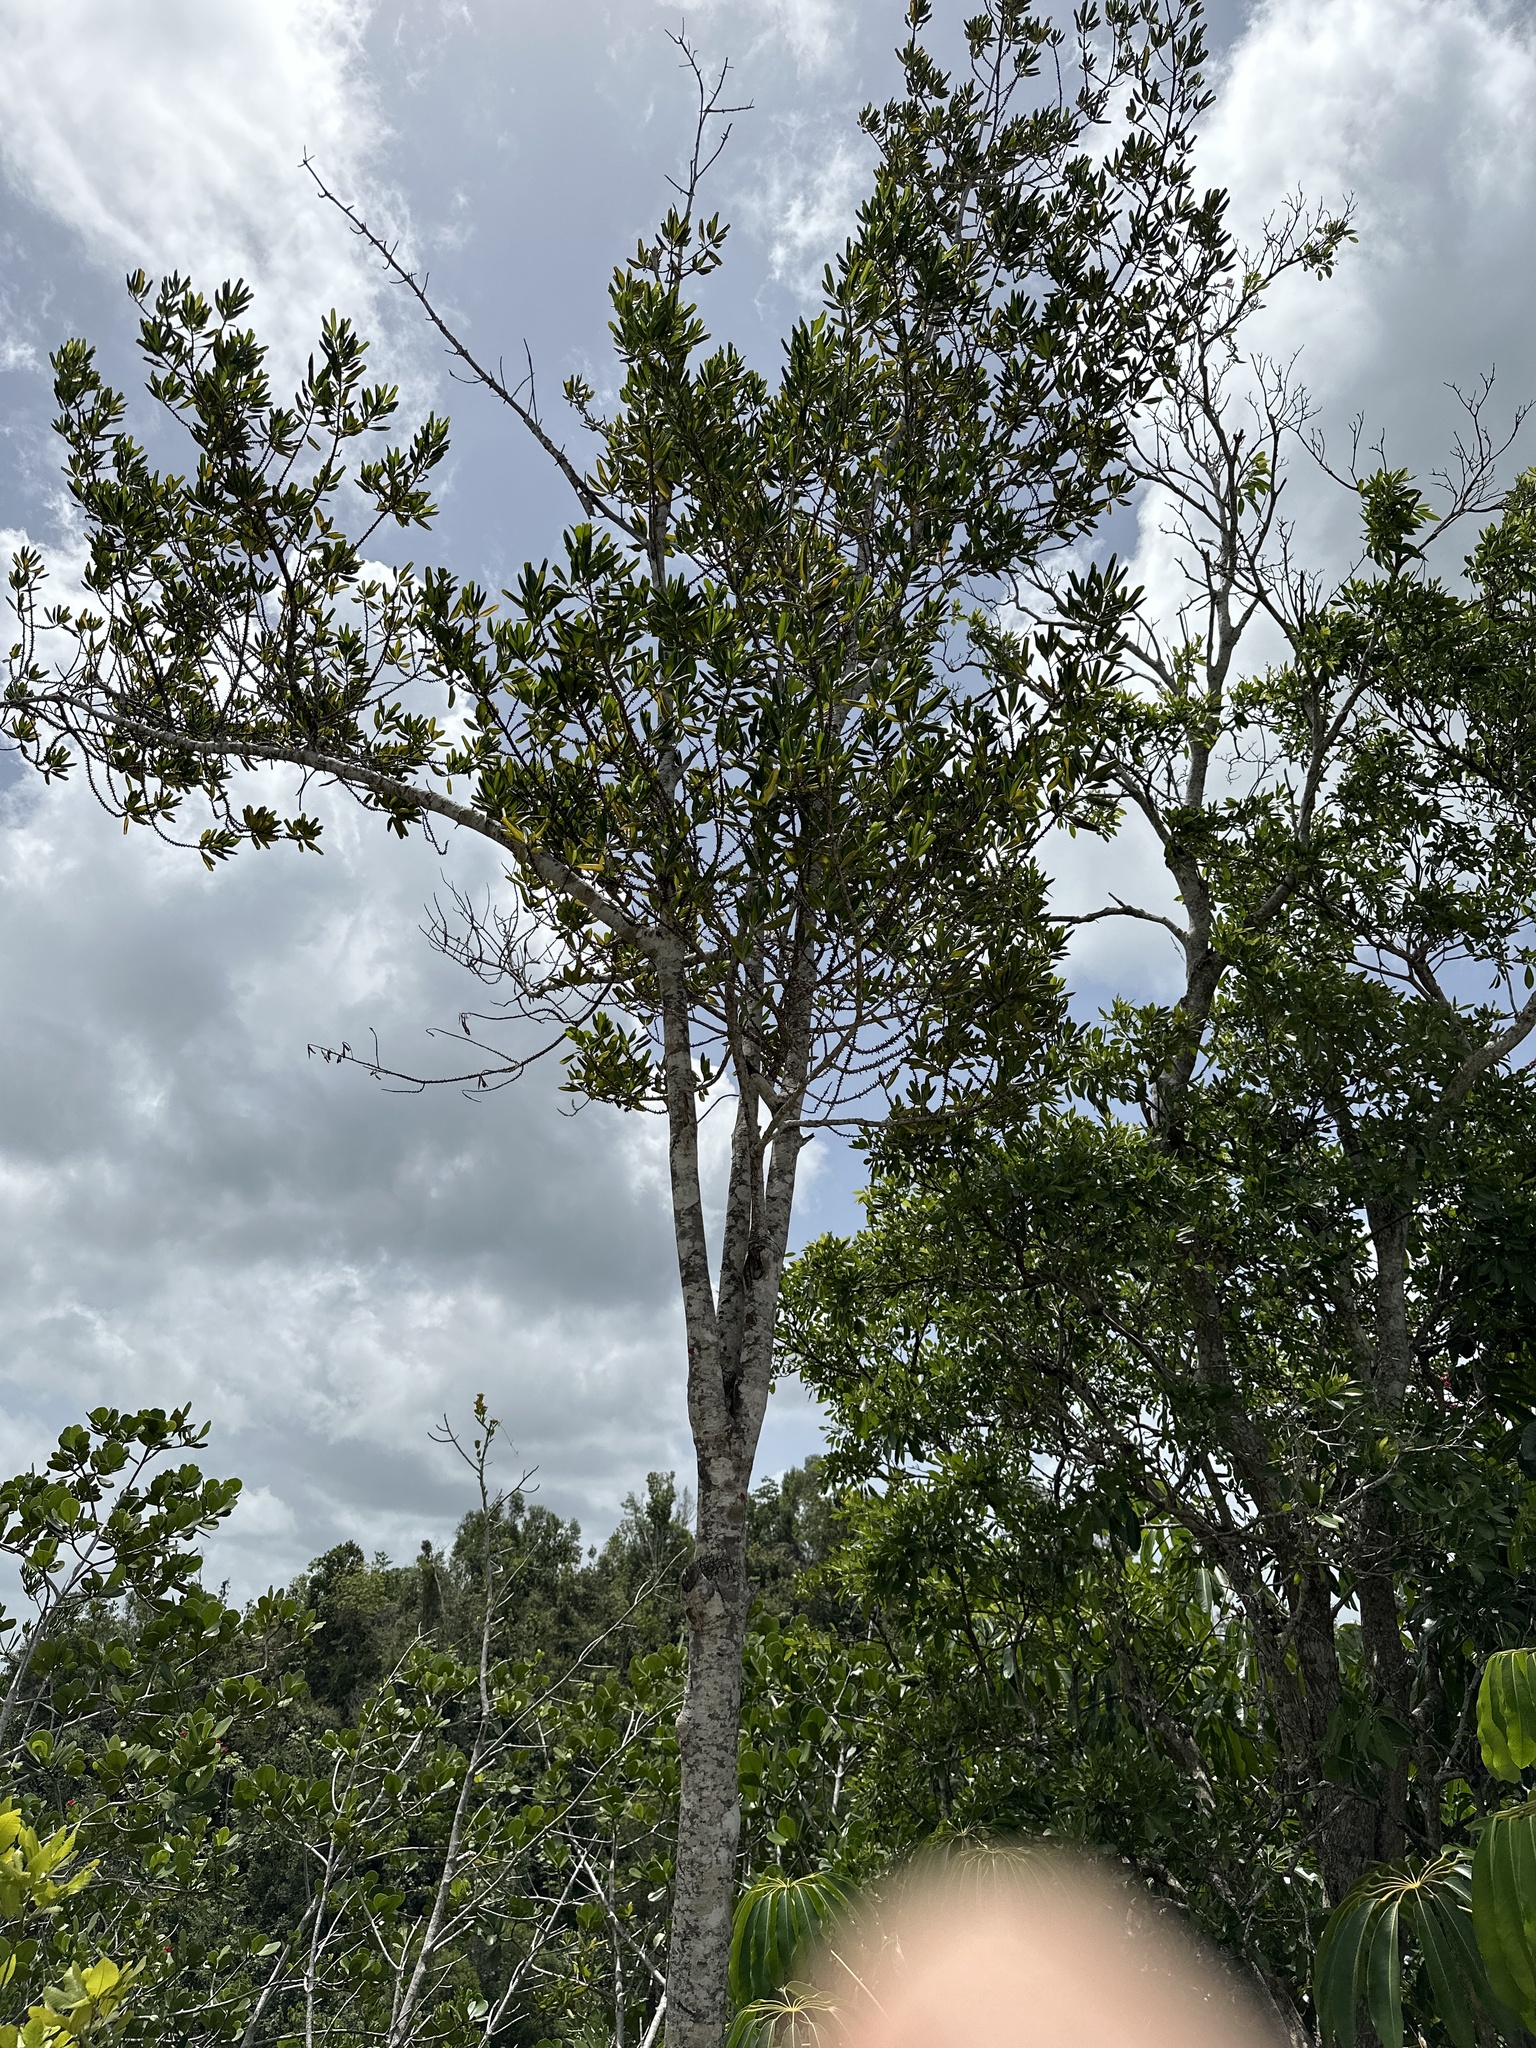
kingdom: Plantae
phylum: Tracheophyta
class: Magnoliopsida
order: Ericales
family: Primulaceae
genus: Myrsine
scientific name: Myrsine floridana
